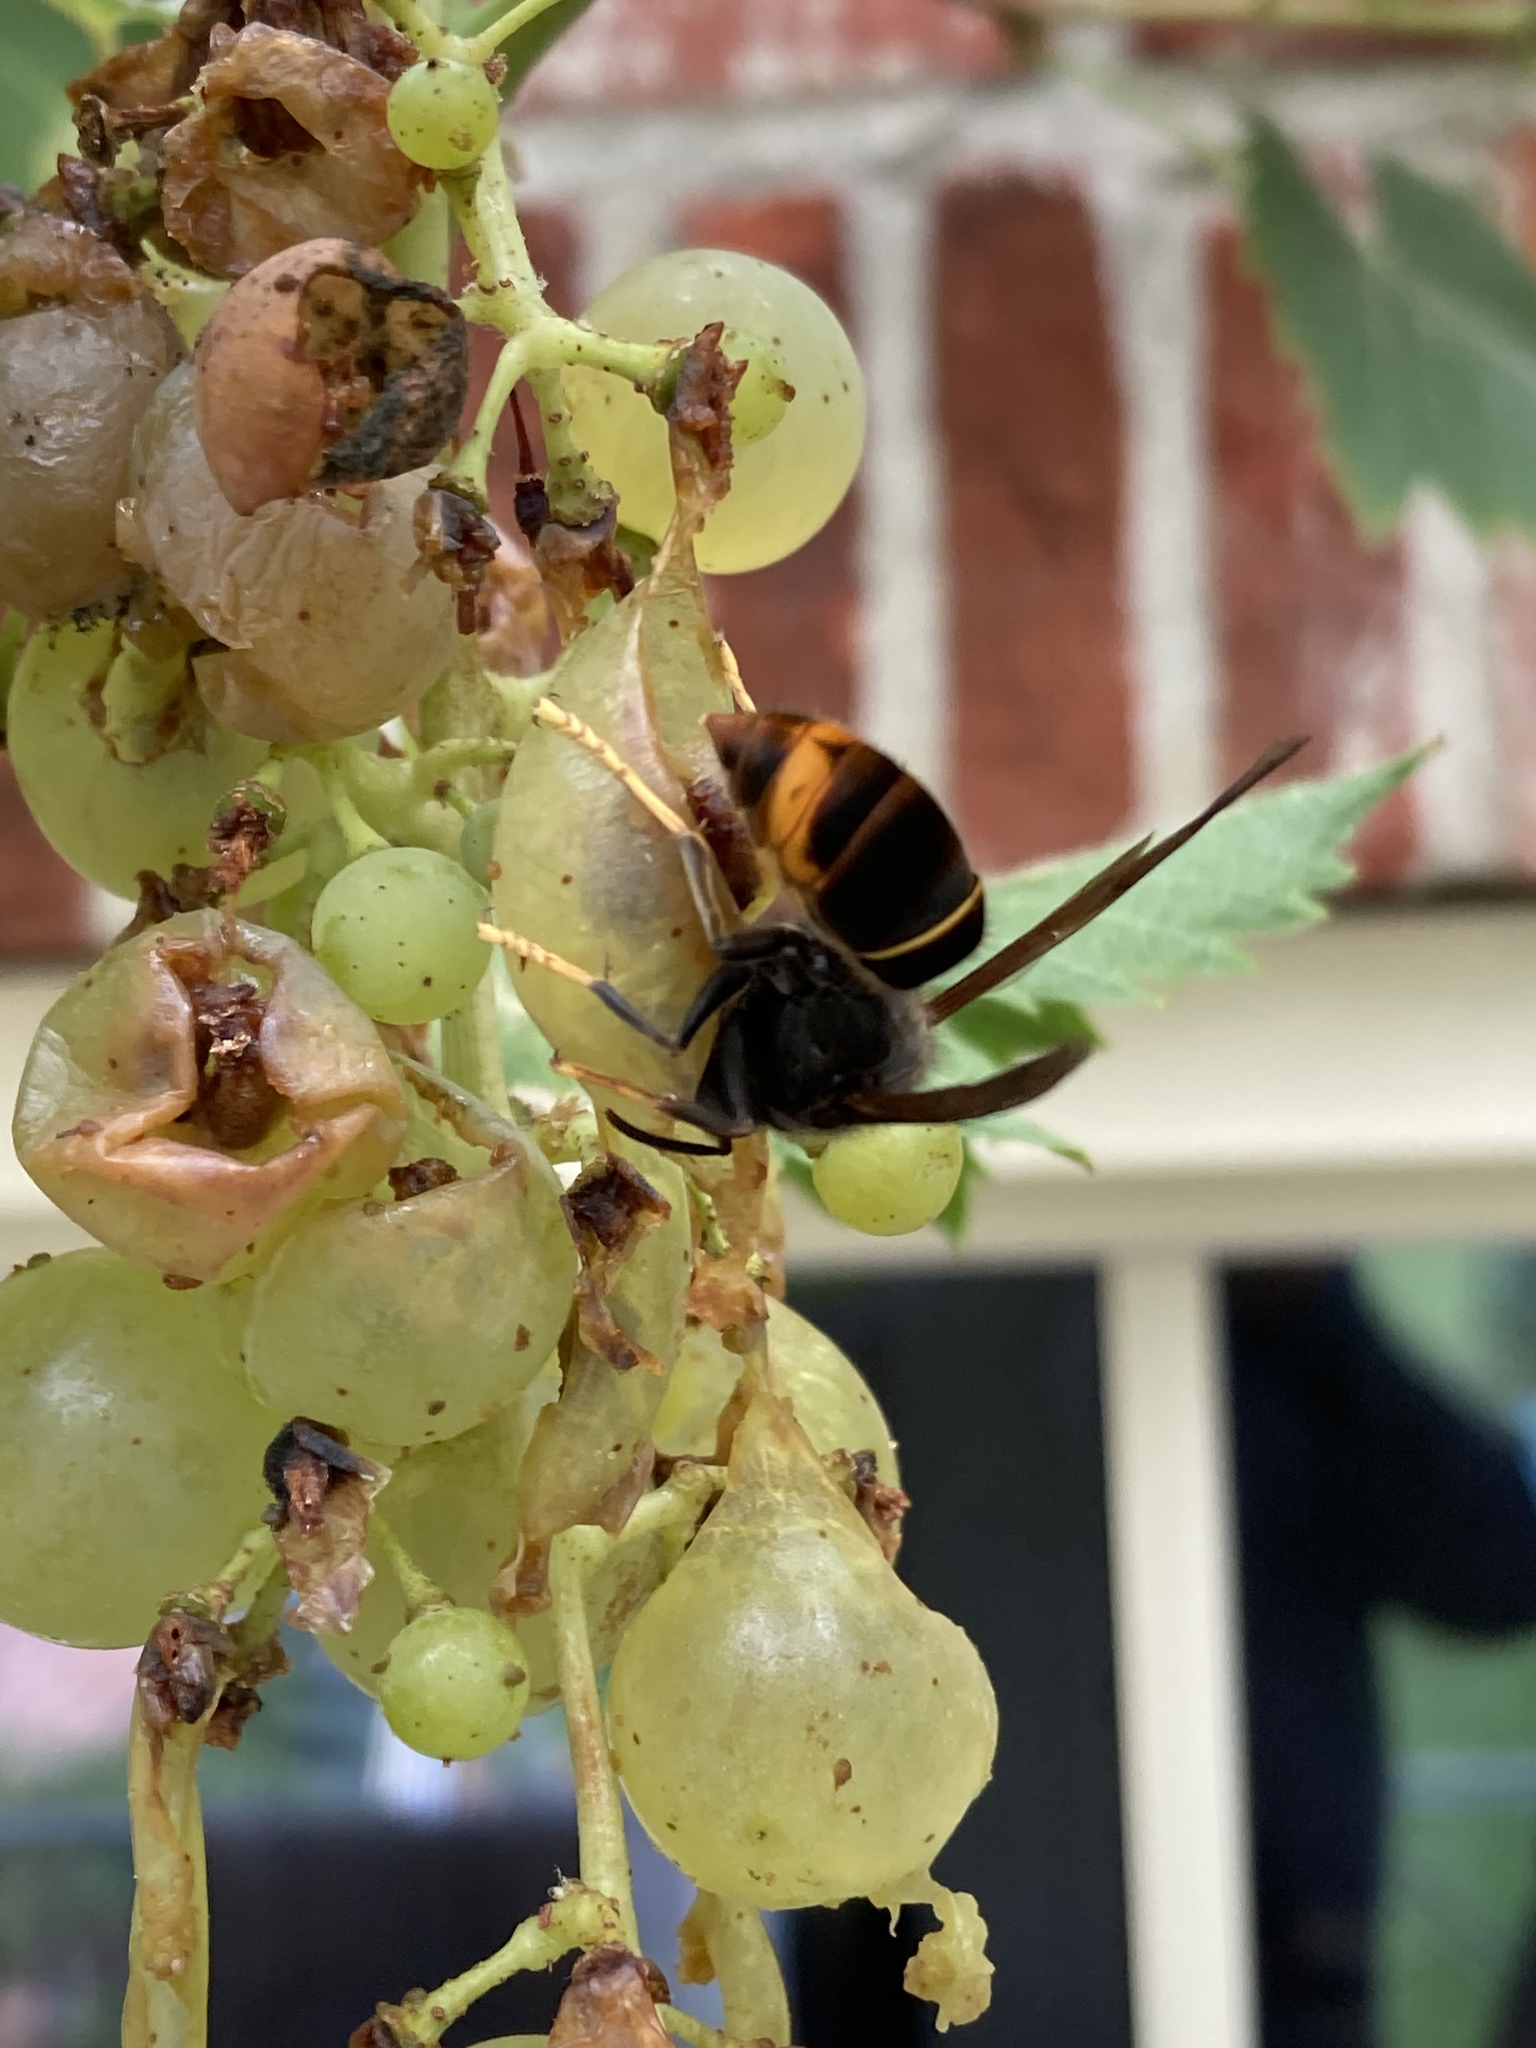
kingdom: Animalia
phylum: Arthropoda
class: Insecta
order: Hymenoptera
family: Vespidae
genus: Vespa
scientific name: Vespa velutina
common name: Asian hornet
